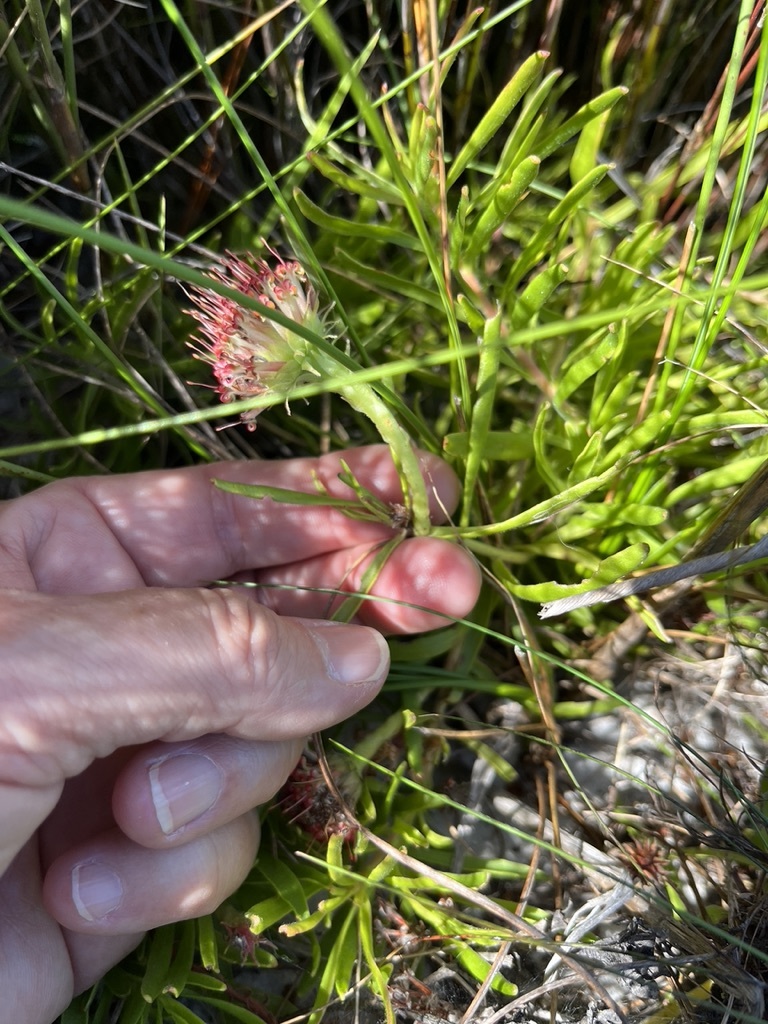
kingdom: Plantae
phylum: Tracheophyta
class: Magnoliopsida
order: Proteales
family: Proteaceae
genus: Leucospermum
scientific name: Leucospermum prostratum
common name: Yellow-trailing pincushion
